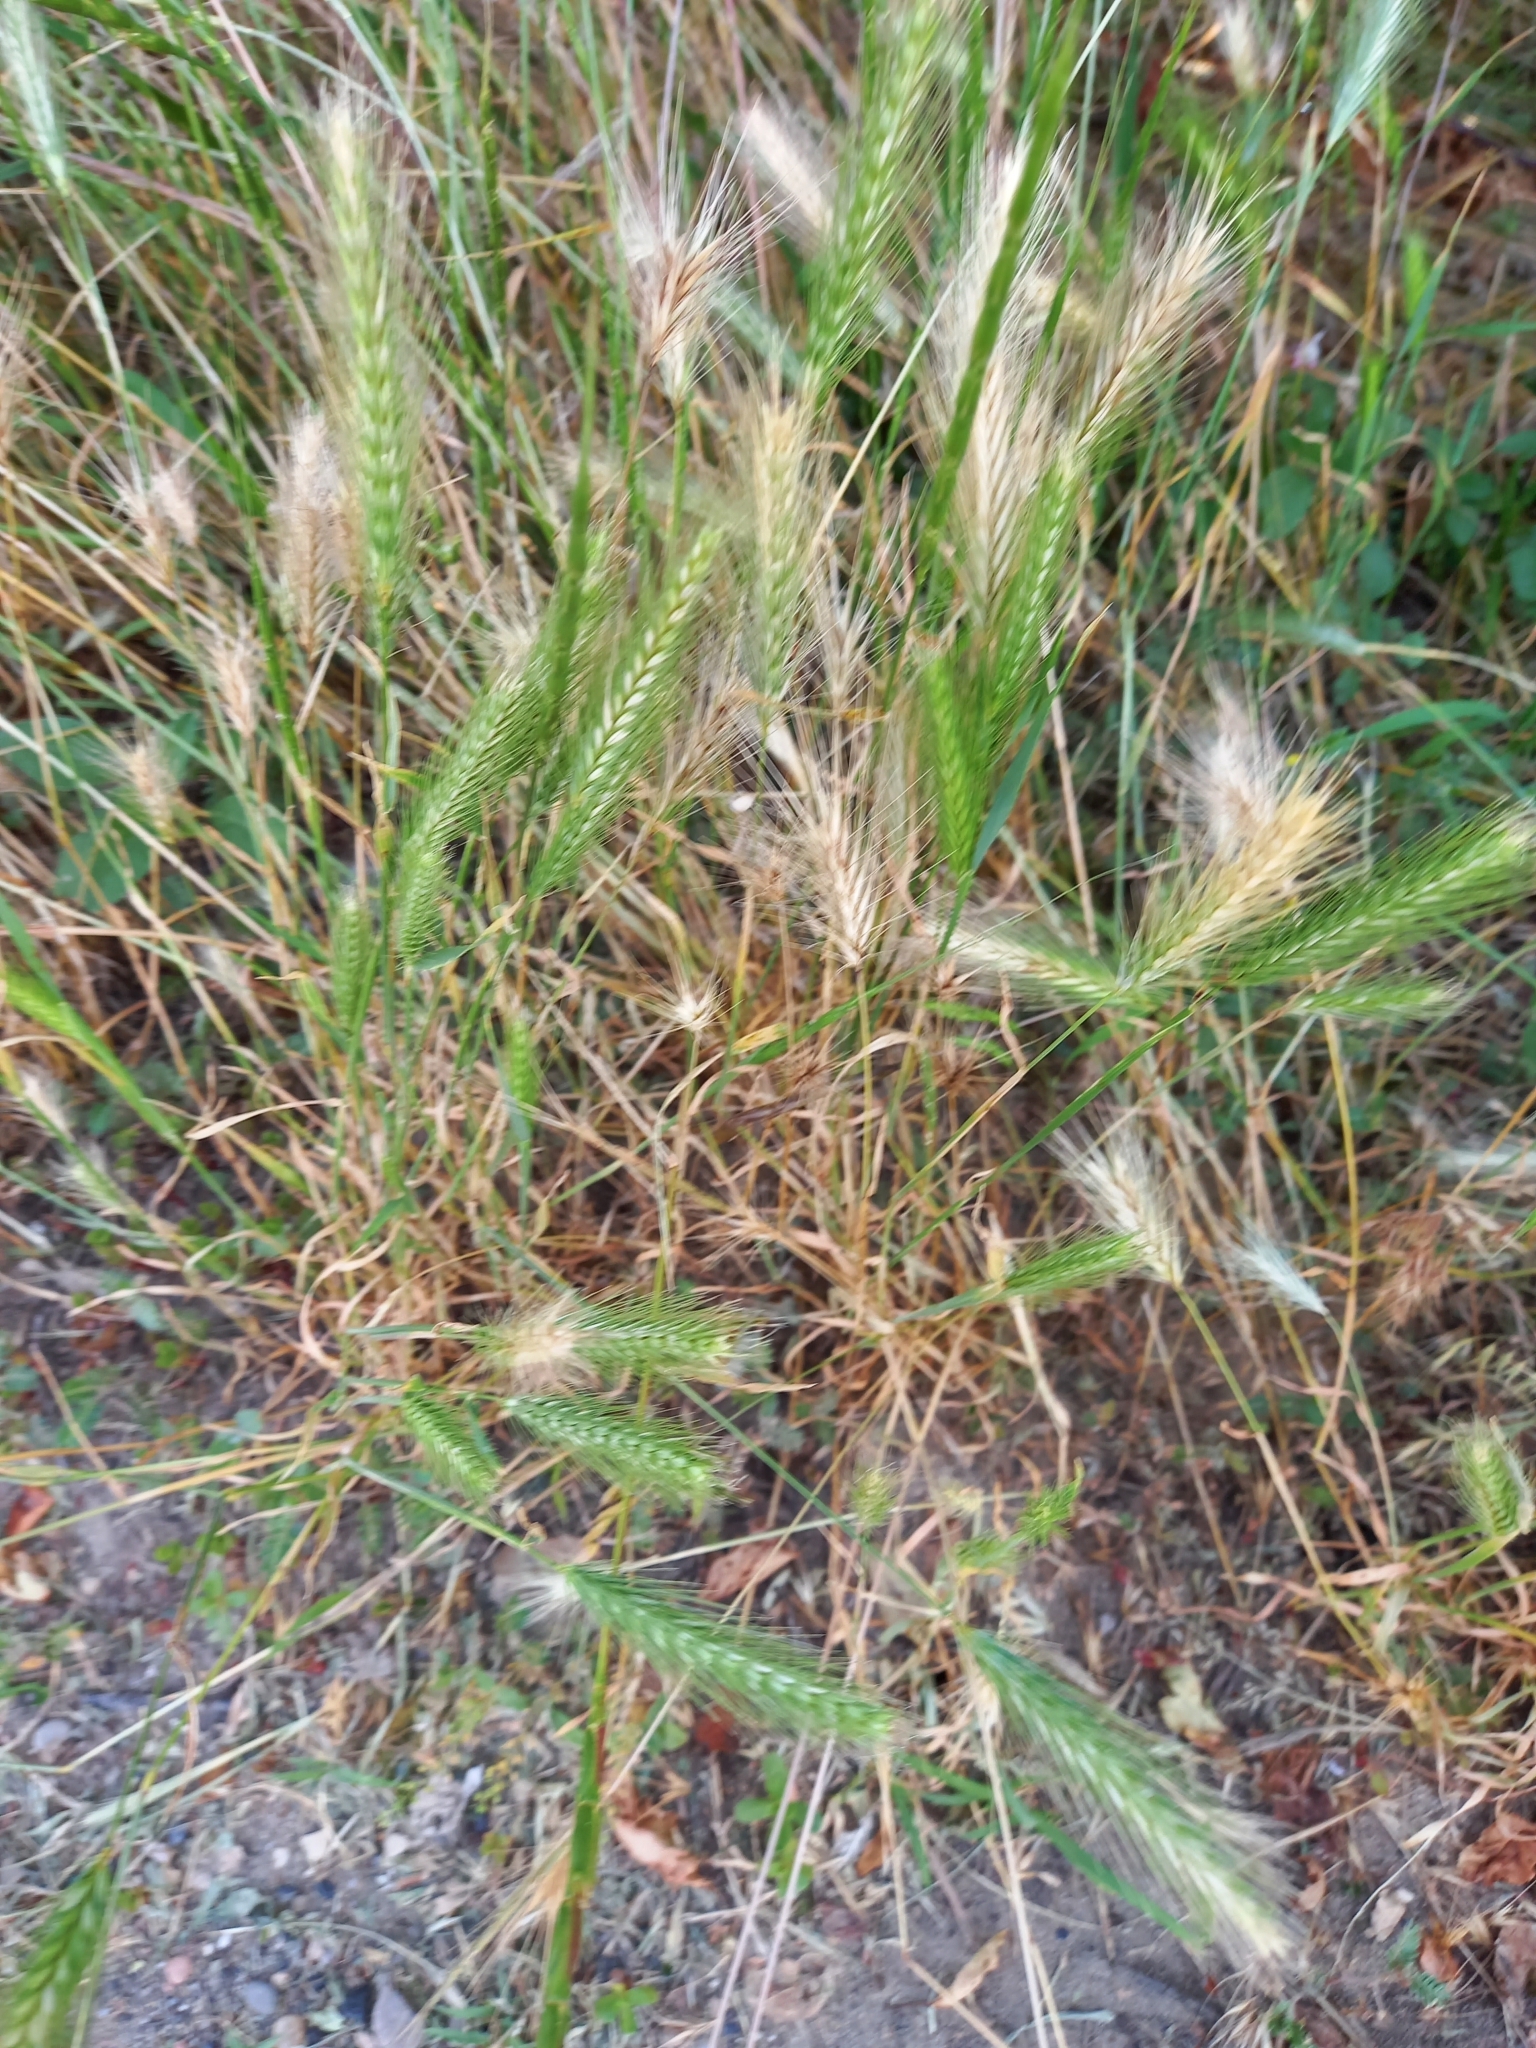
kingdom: Plantae
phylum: Tracheophyta
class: Liliopsida
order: Poales
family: Poaceae
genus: Hordeum
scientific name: Hordeum murinum
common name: Wall barley
